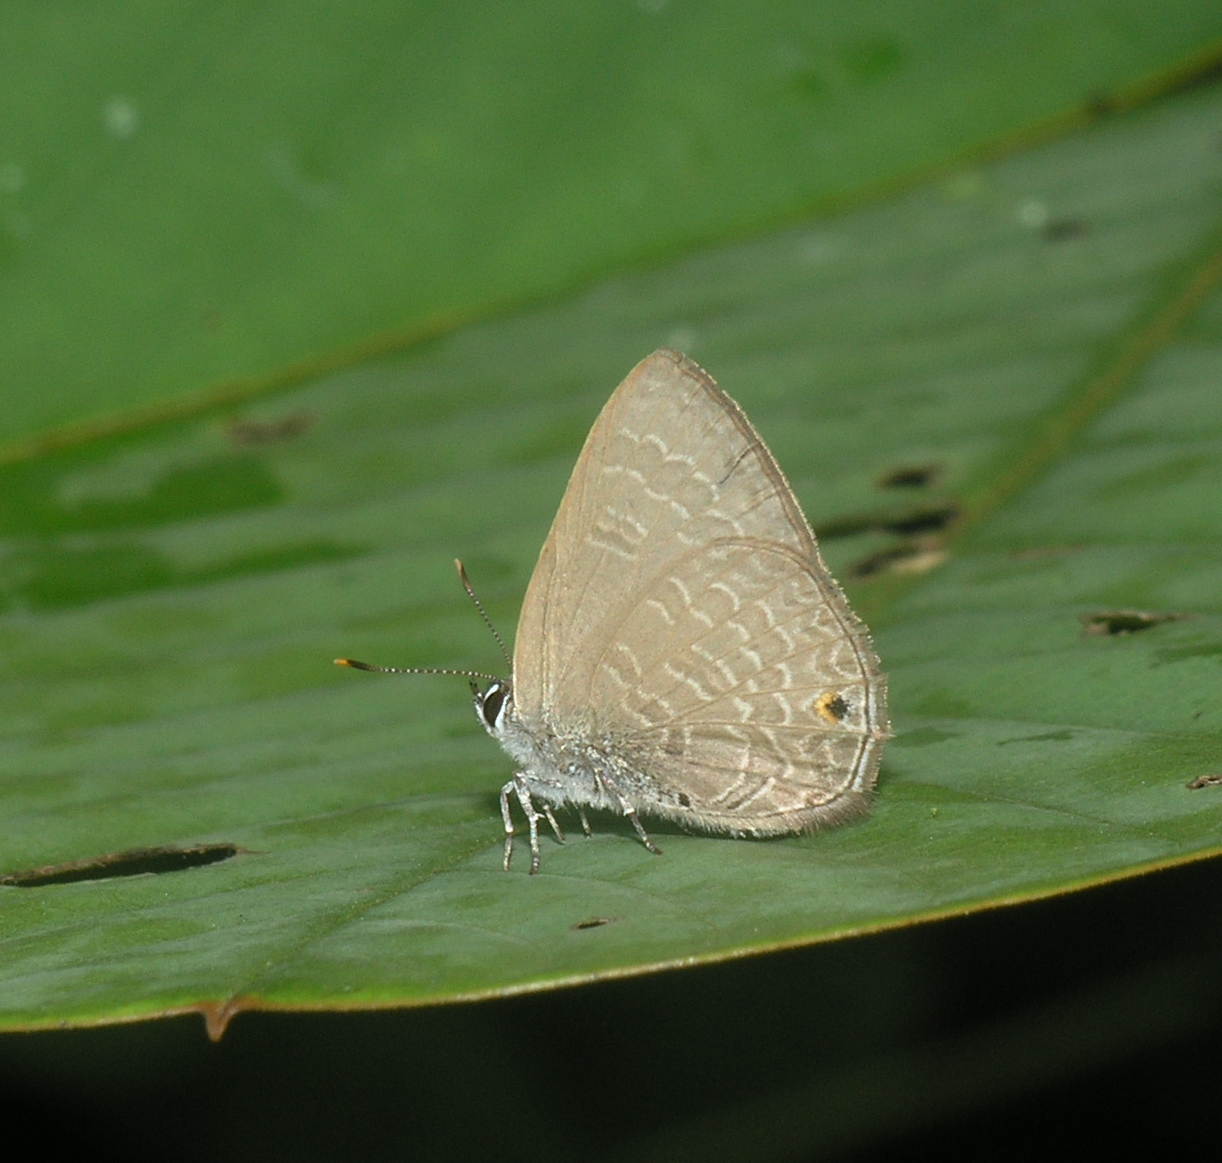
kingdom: Animalia
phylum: Arthropoda
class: Insecta
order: Lepidoptera
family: Lycaenidae
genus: Anthene
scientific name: Anthene emolus
